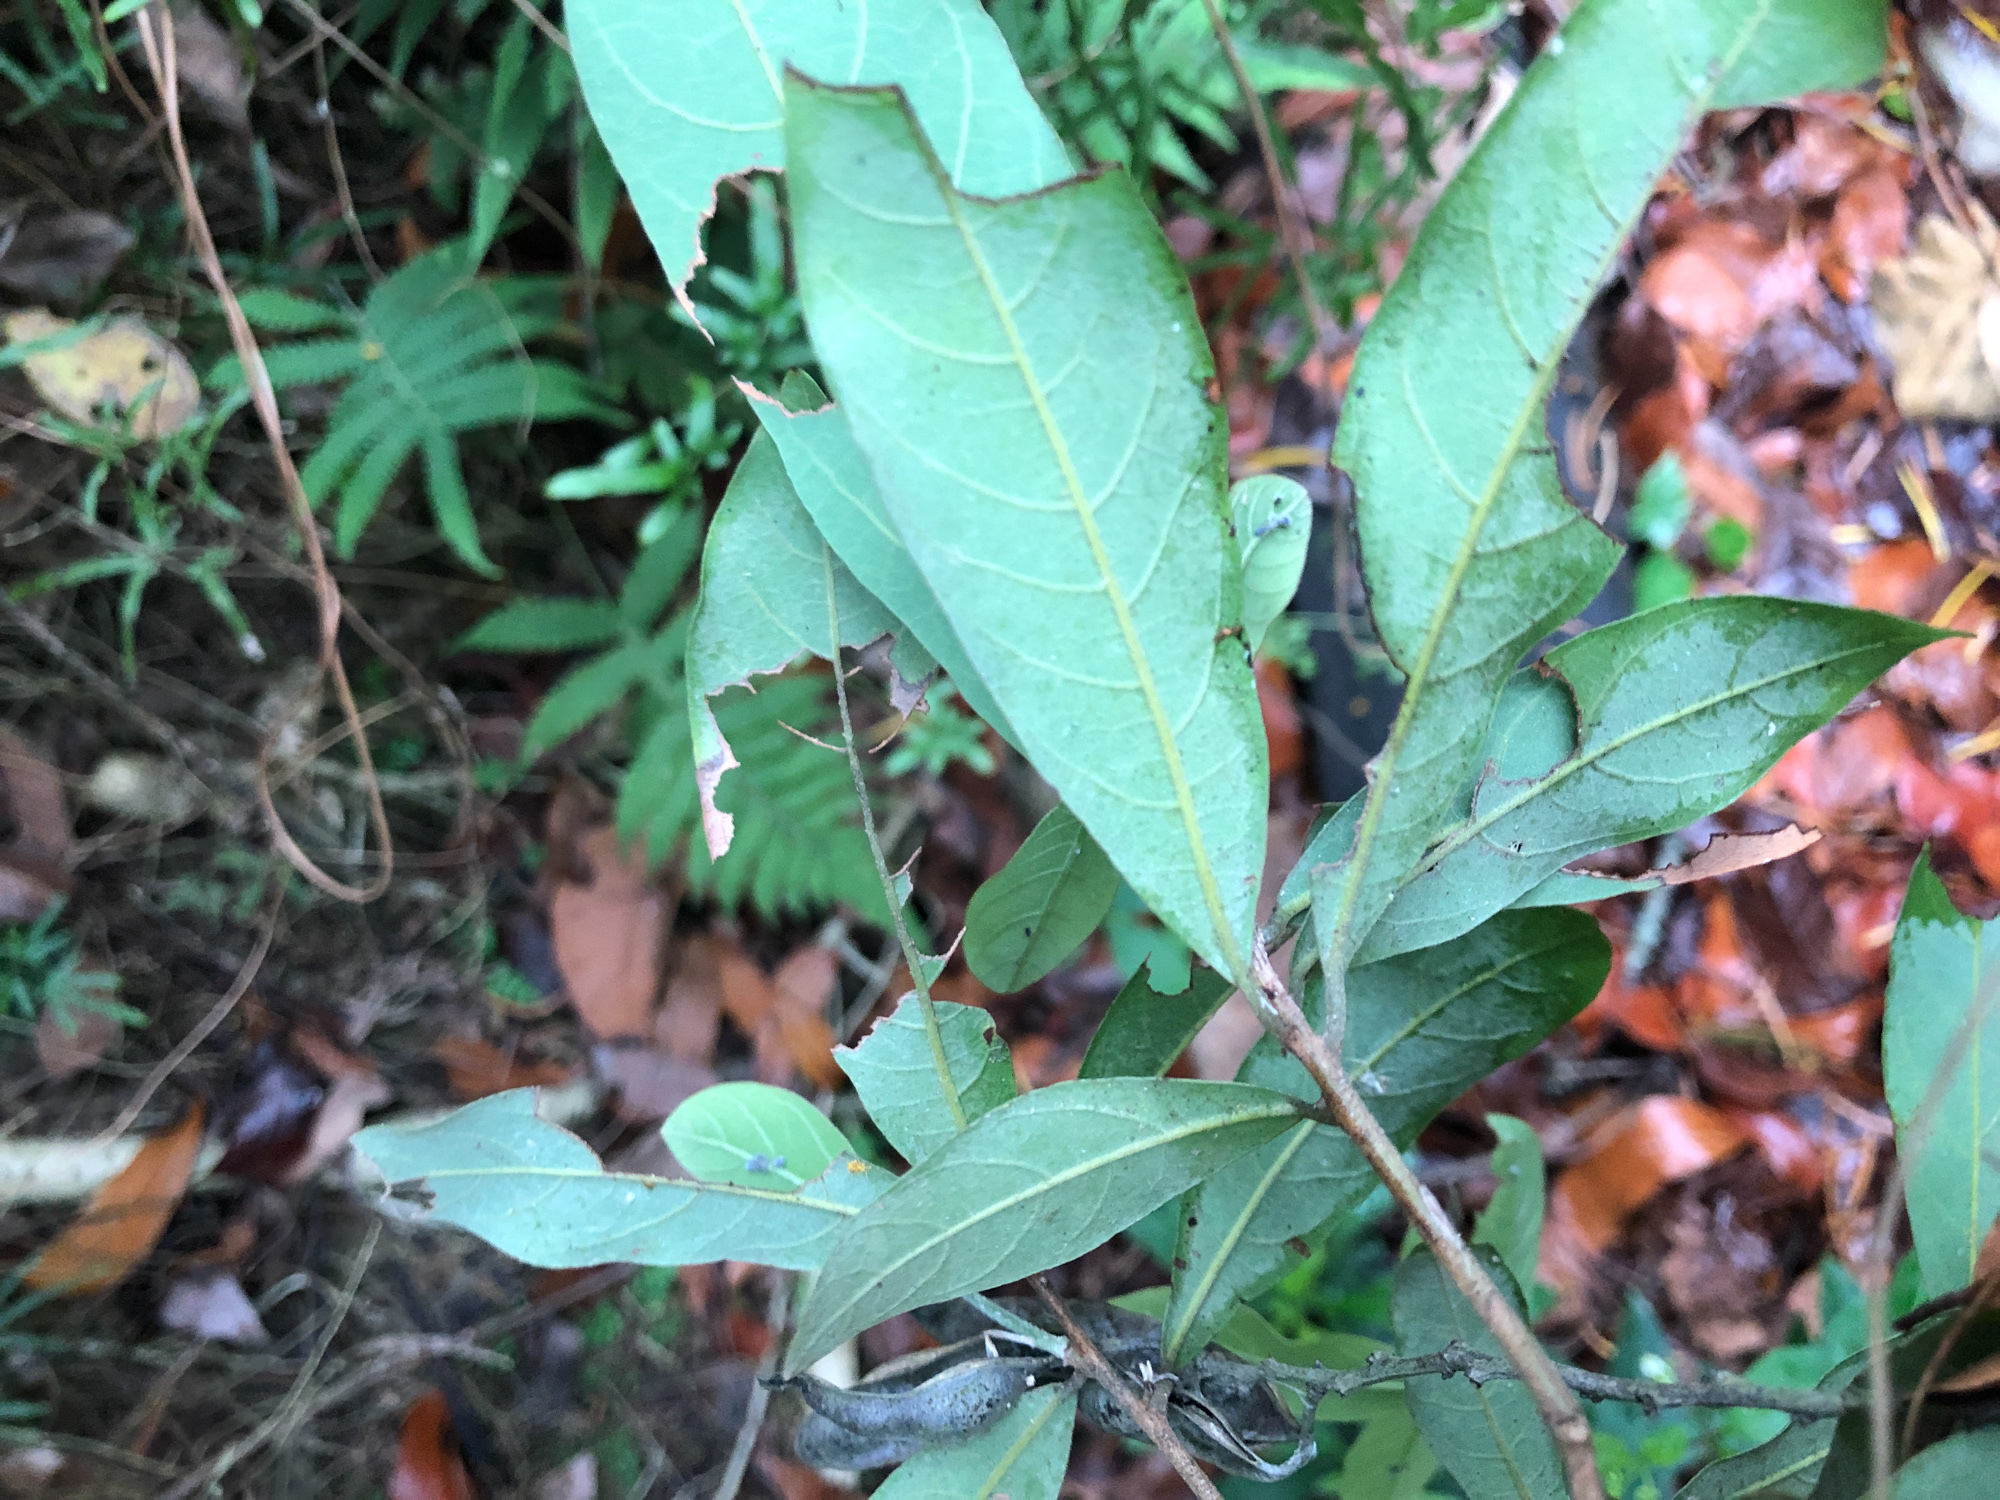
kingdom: Plantae
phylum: Tracheophyta
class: Magnoliopsida
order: Laurales
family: Lauraceae
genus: Litsea
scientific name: Litsea hypophaea
